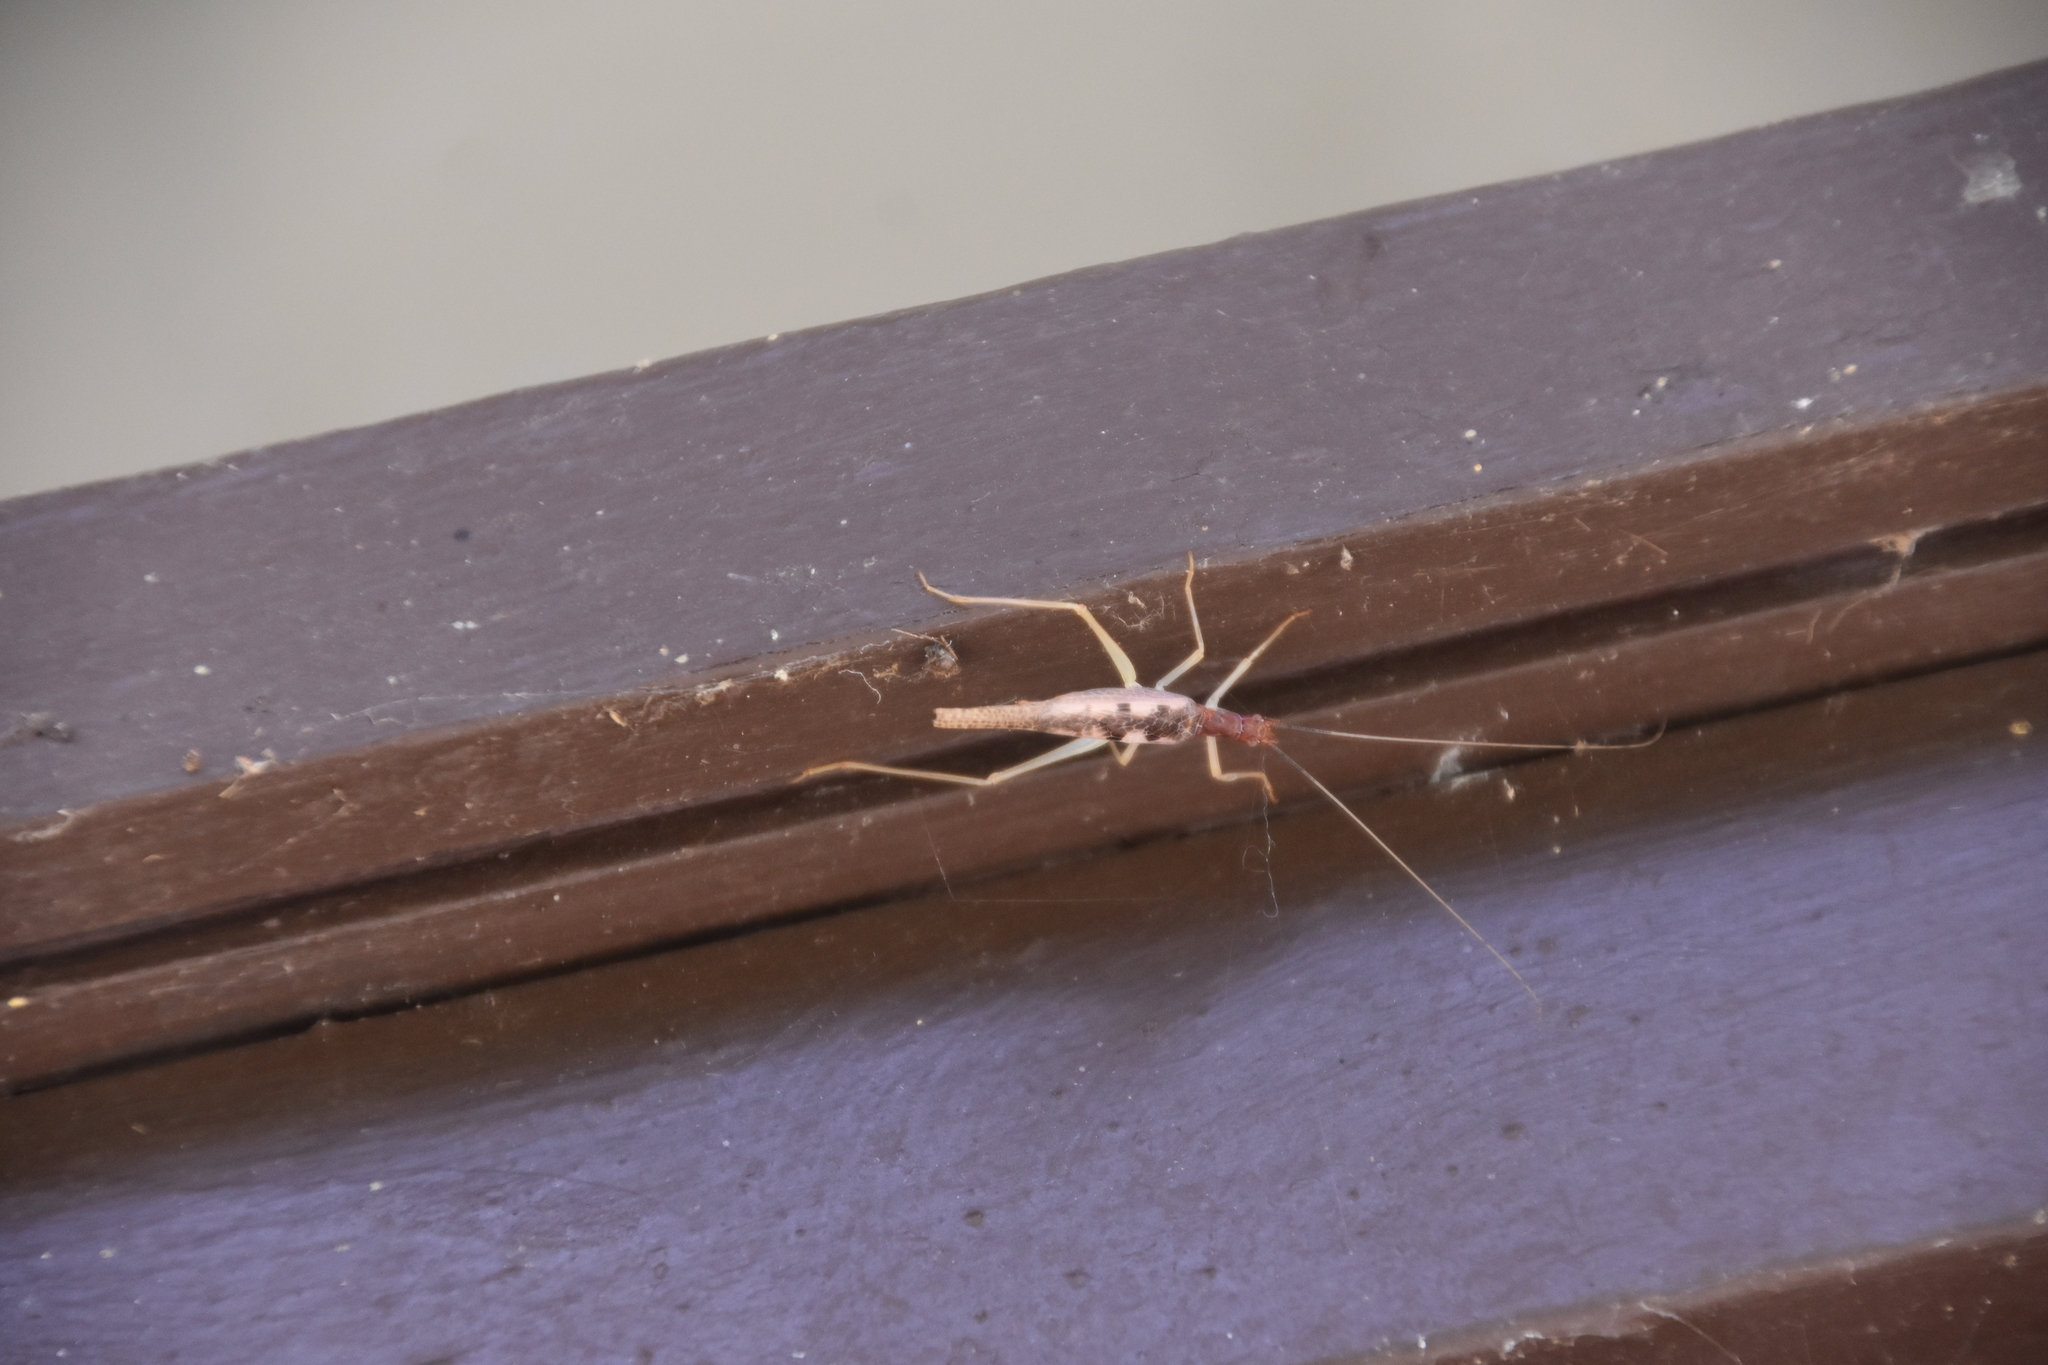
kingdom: Animalia
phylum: Arthropoda
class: Insecta
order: Orthoptera
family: Gryllidae
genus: Neoxabea
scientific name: Neoxabea bipunctata
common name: Two-spotted tree cricket
